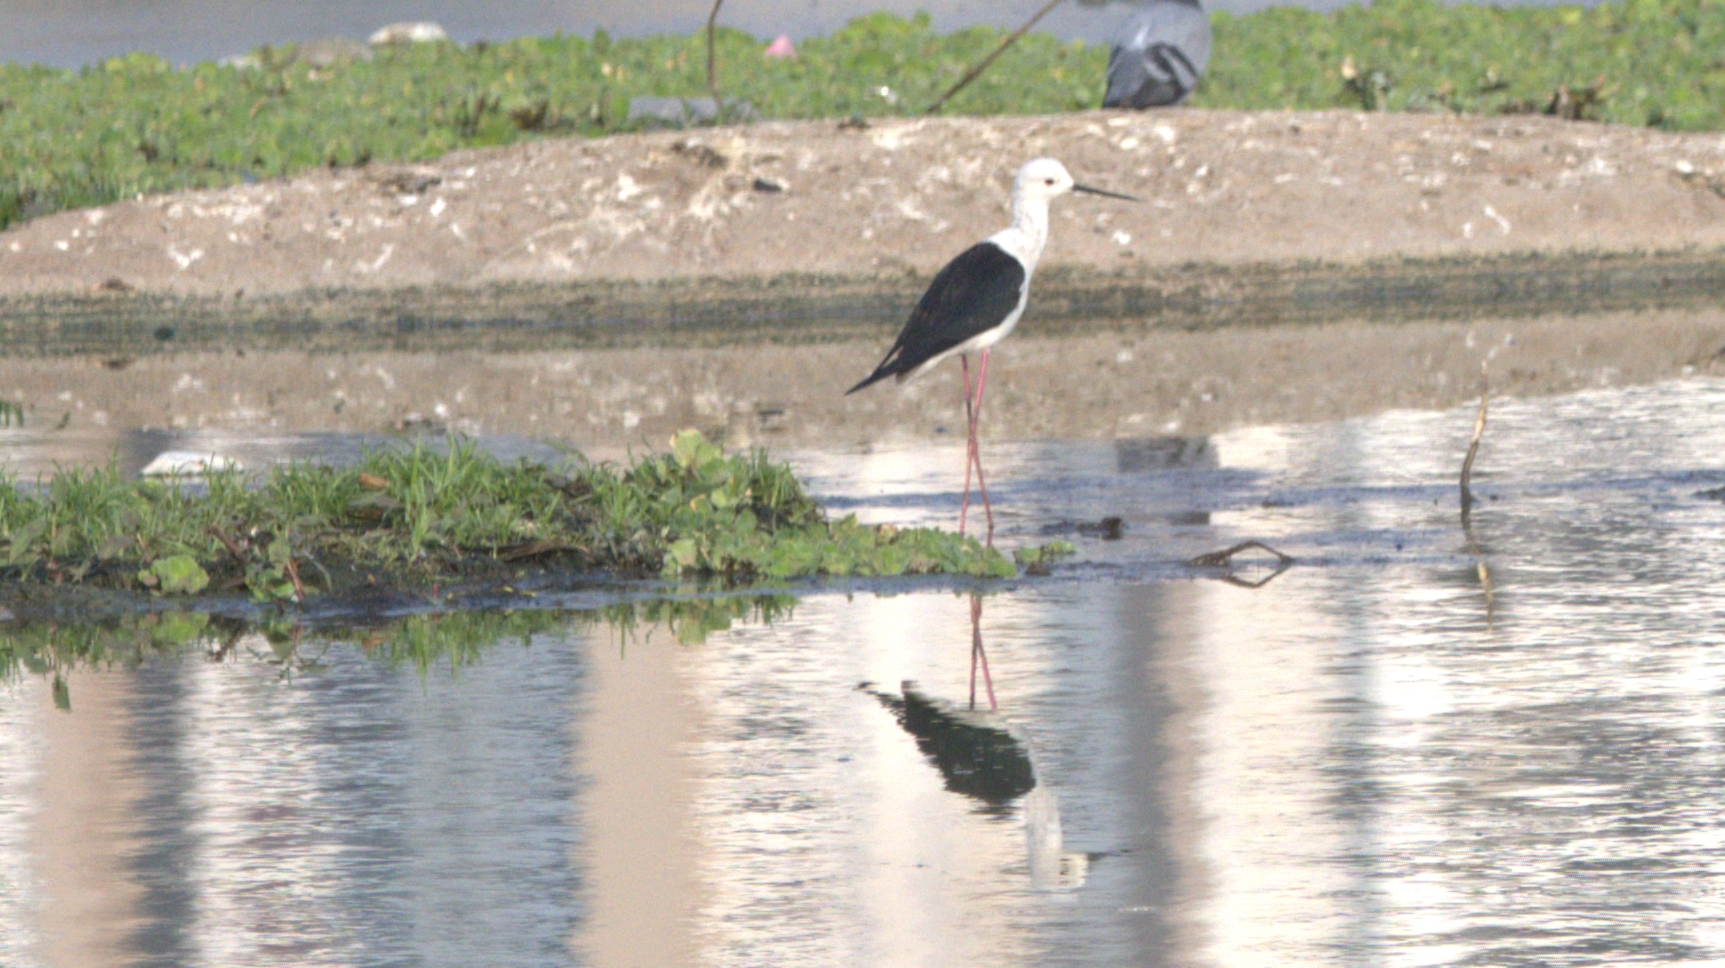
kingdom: Animalia
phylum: Chordata
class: Aves
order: Charadriiformes
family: Recurvirostridae
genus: Himantopus
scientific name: Himantopus himantopus
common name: Black-winged stilt
